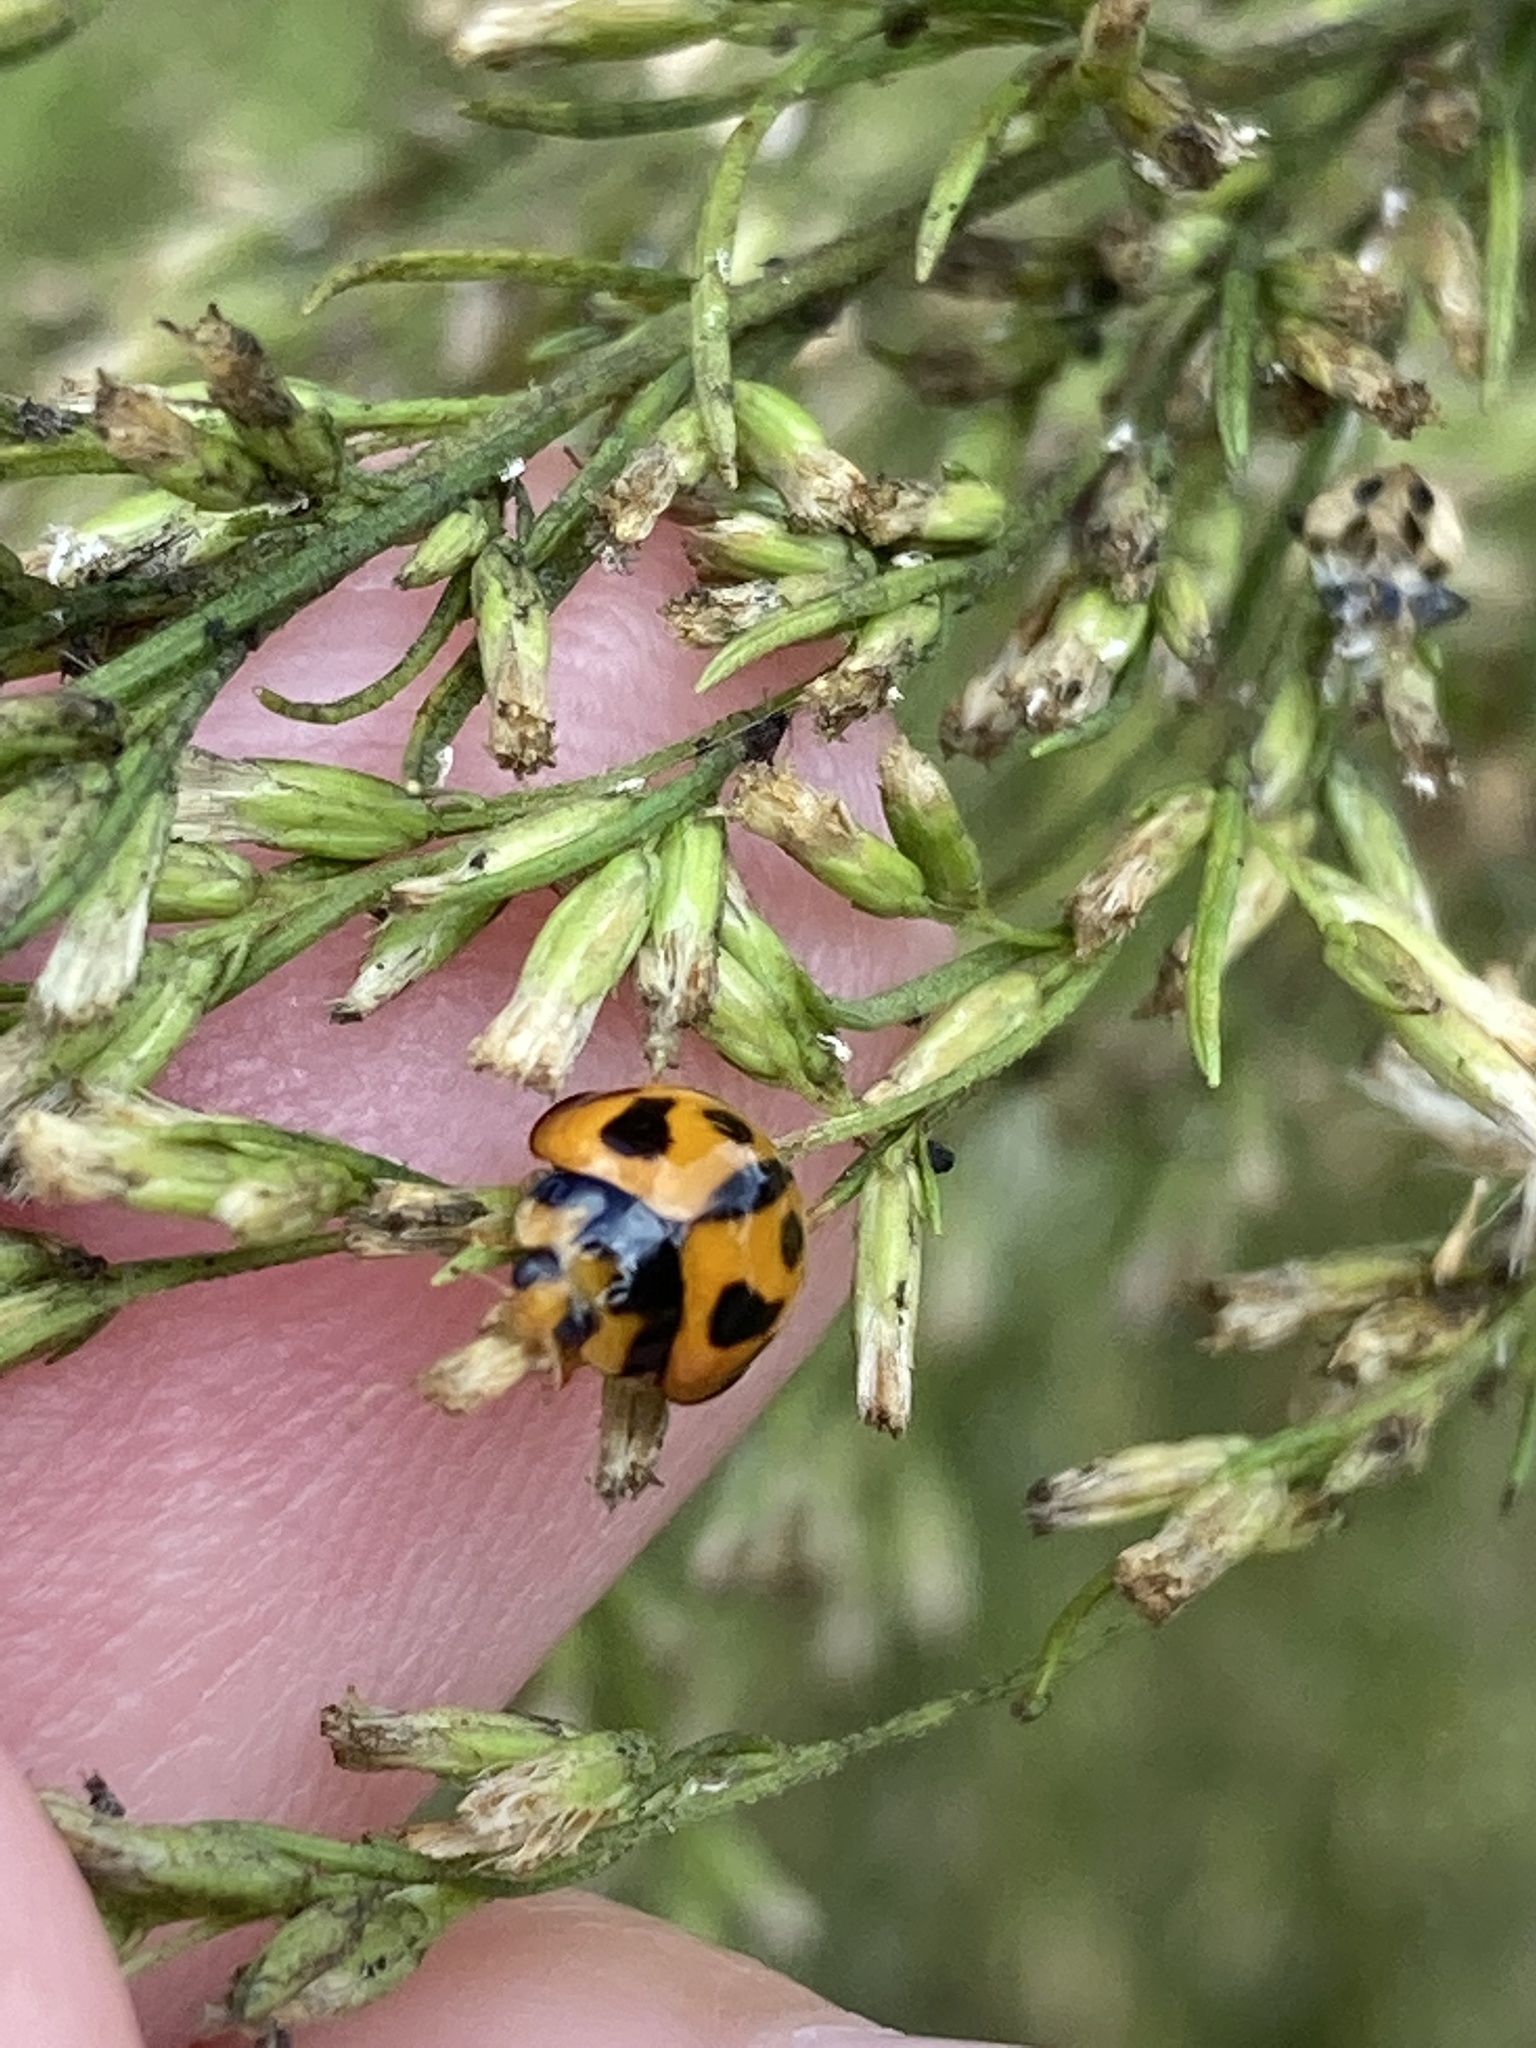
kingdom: Animalia
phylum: Arthropoda
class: Insecta
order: Coleoptera
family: Coccinellidae
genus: Coelophora
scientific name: Coelophora inaequalis
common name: Common australian lady beetle
